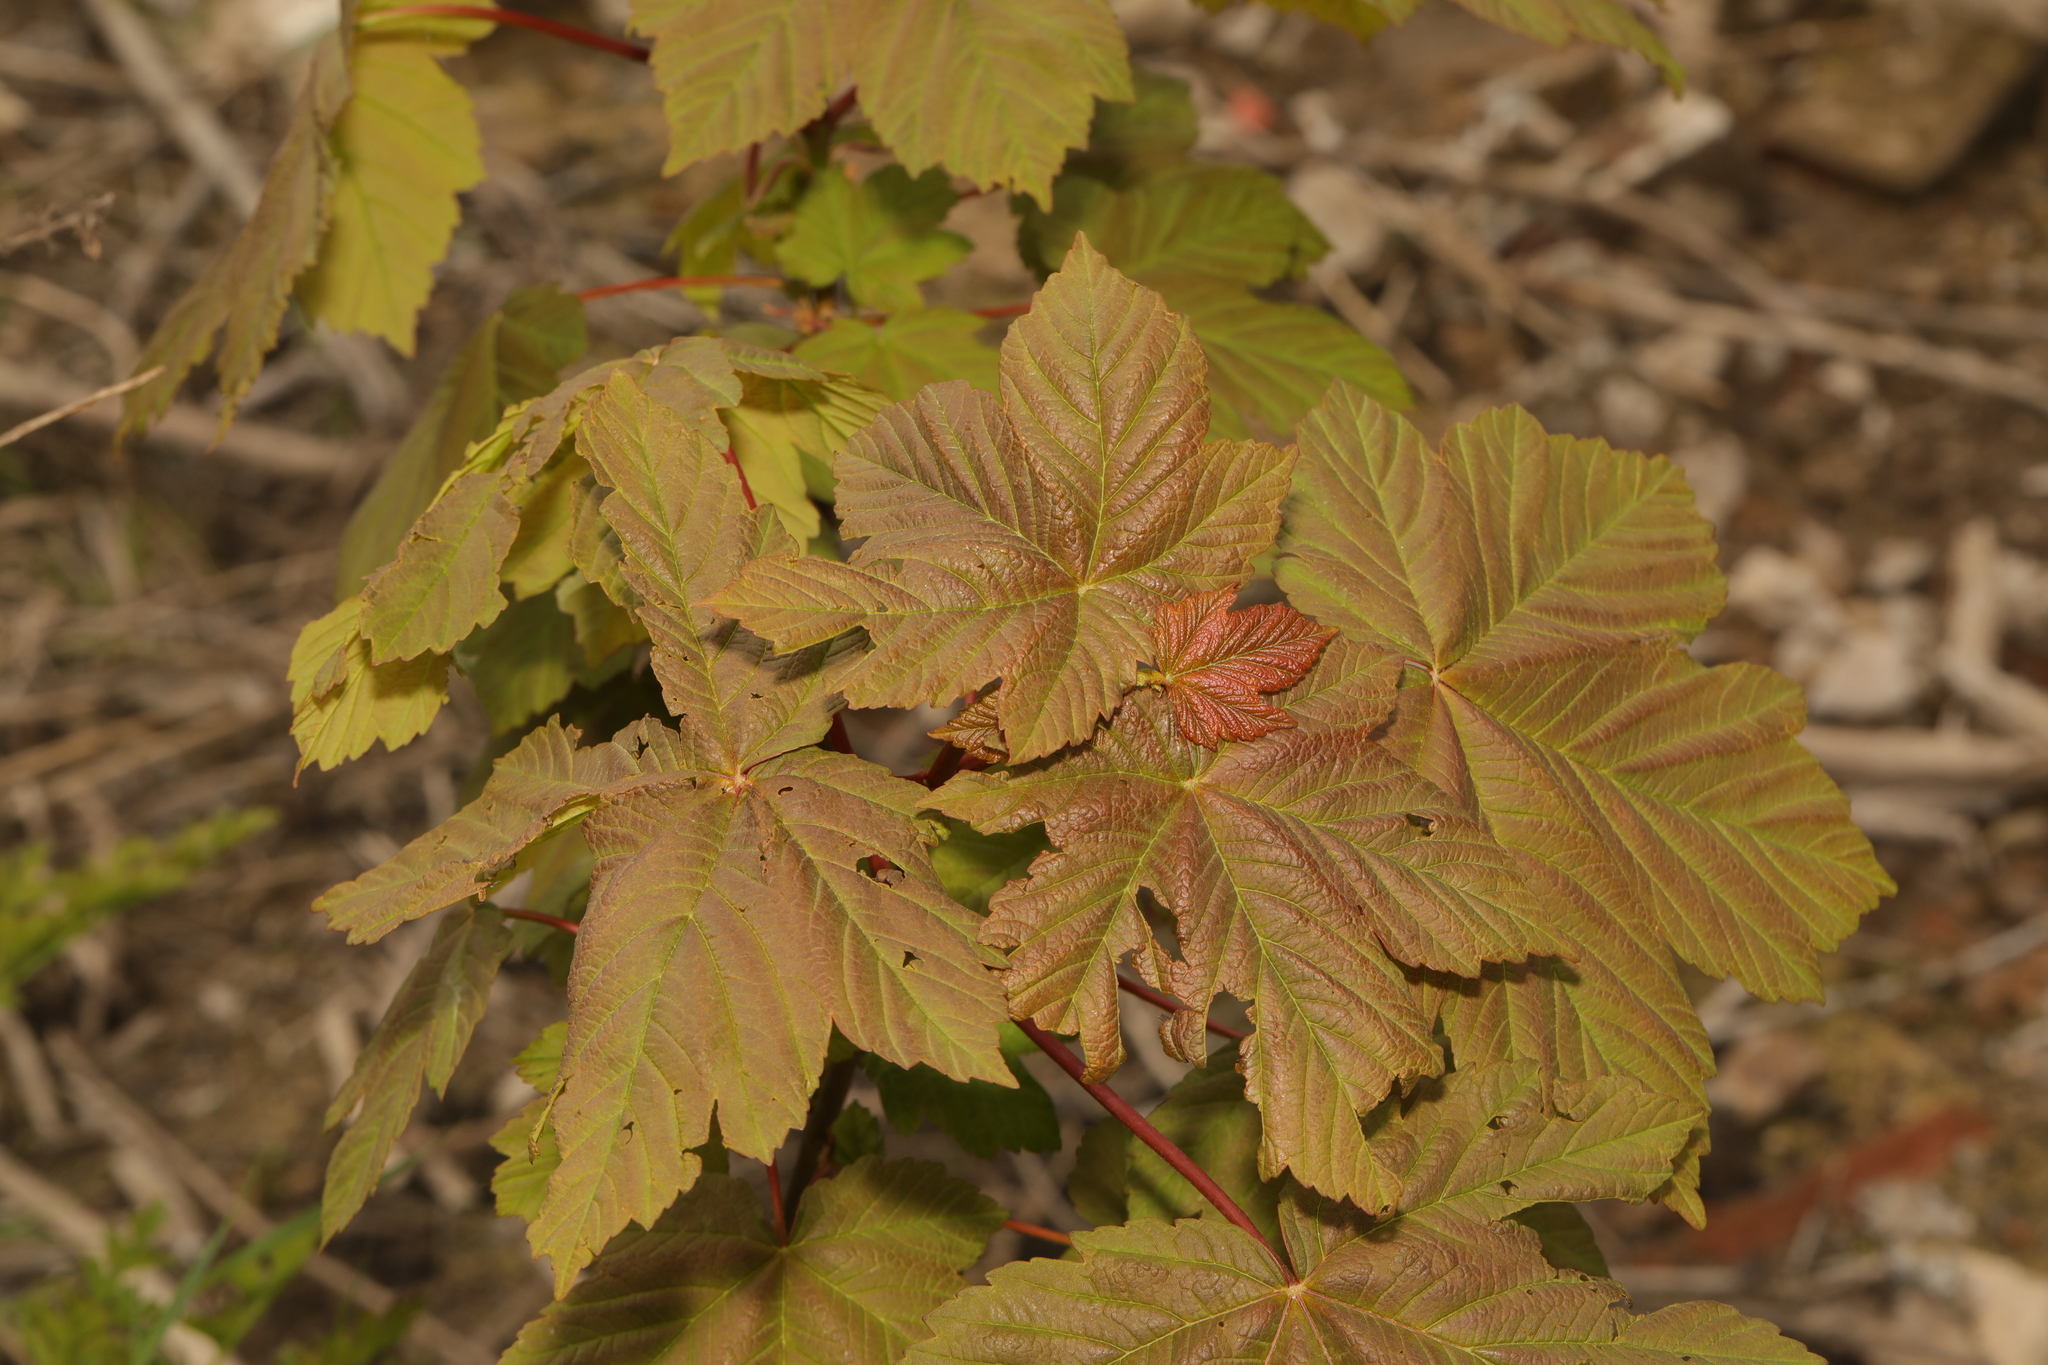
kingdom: Plantae
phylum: Tracheophyta
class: Magnoliopsida
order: Sapindales
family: Sapindaceae
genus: Acer
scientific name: Acer pseudoplatanus
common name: Sycamore
